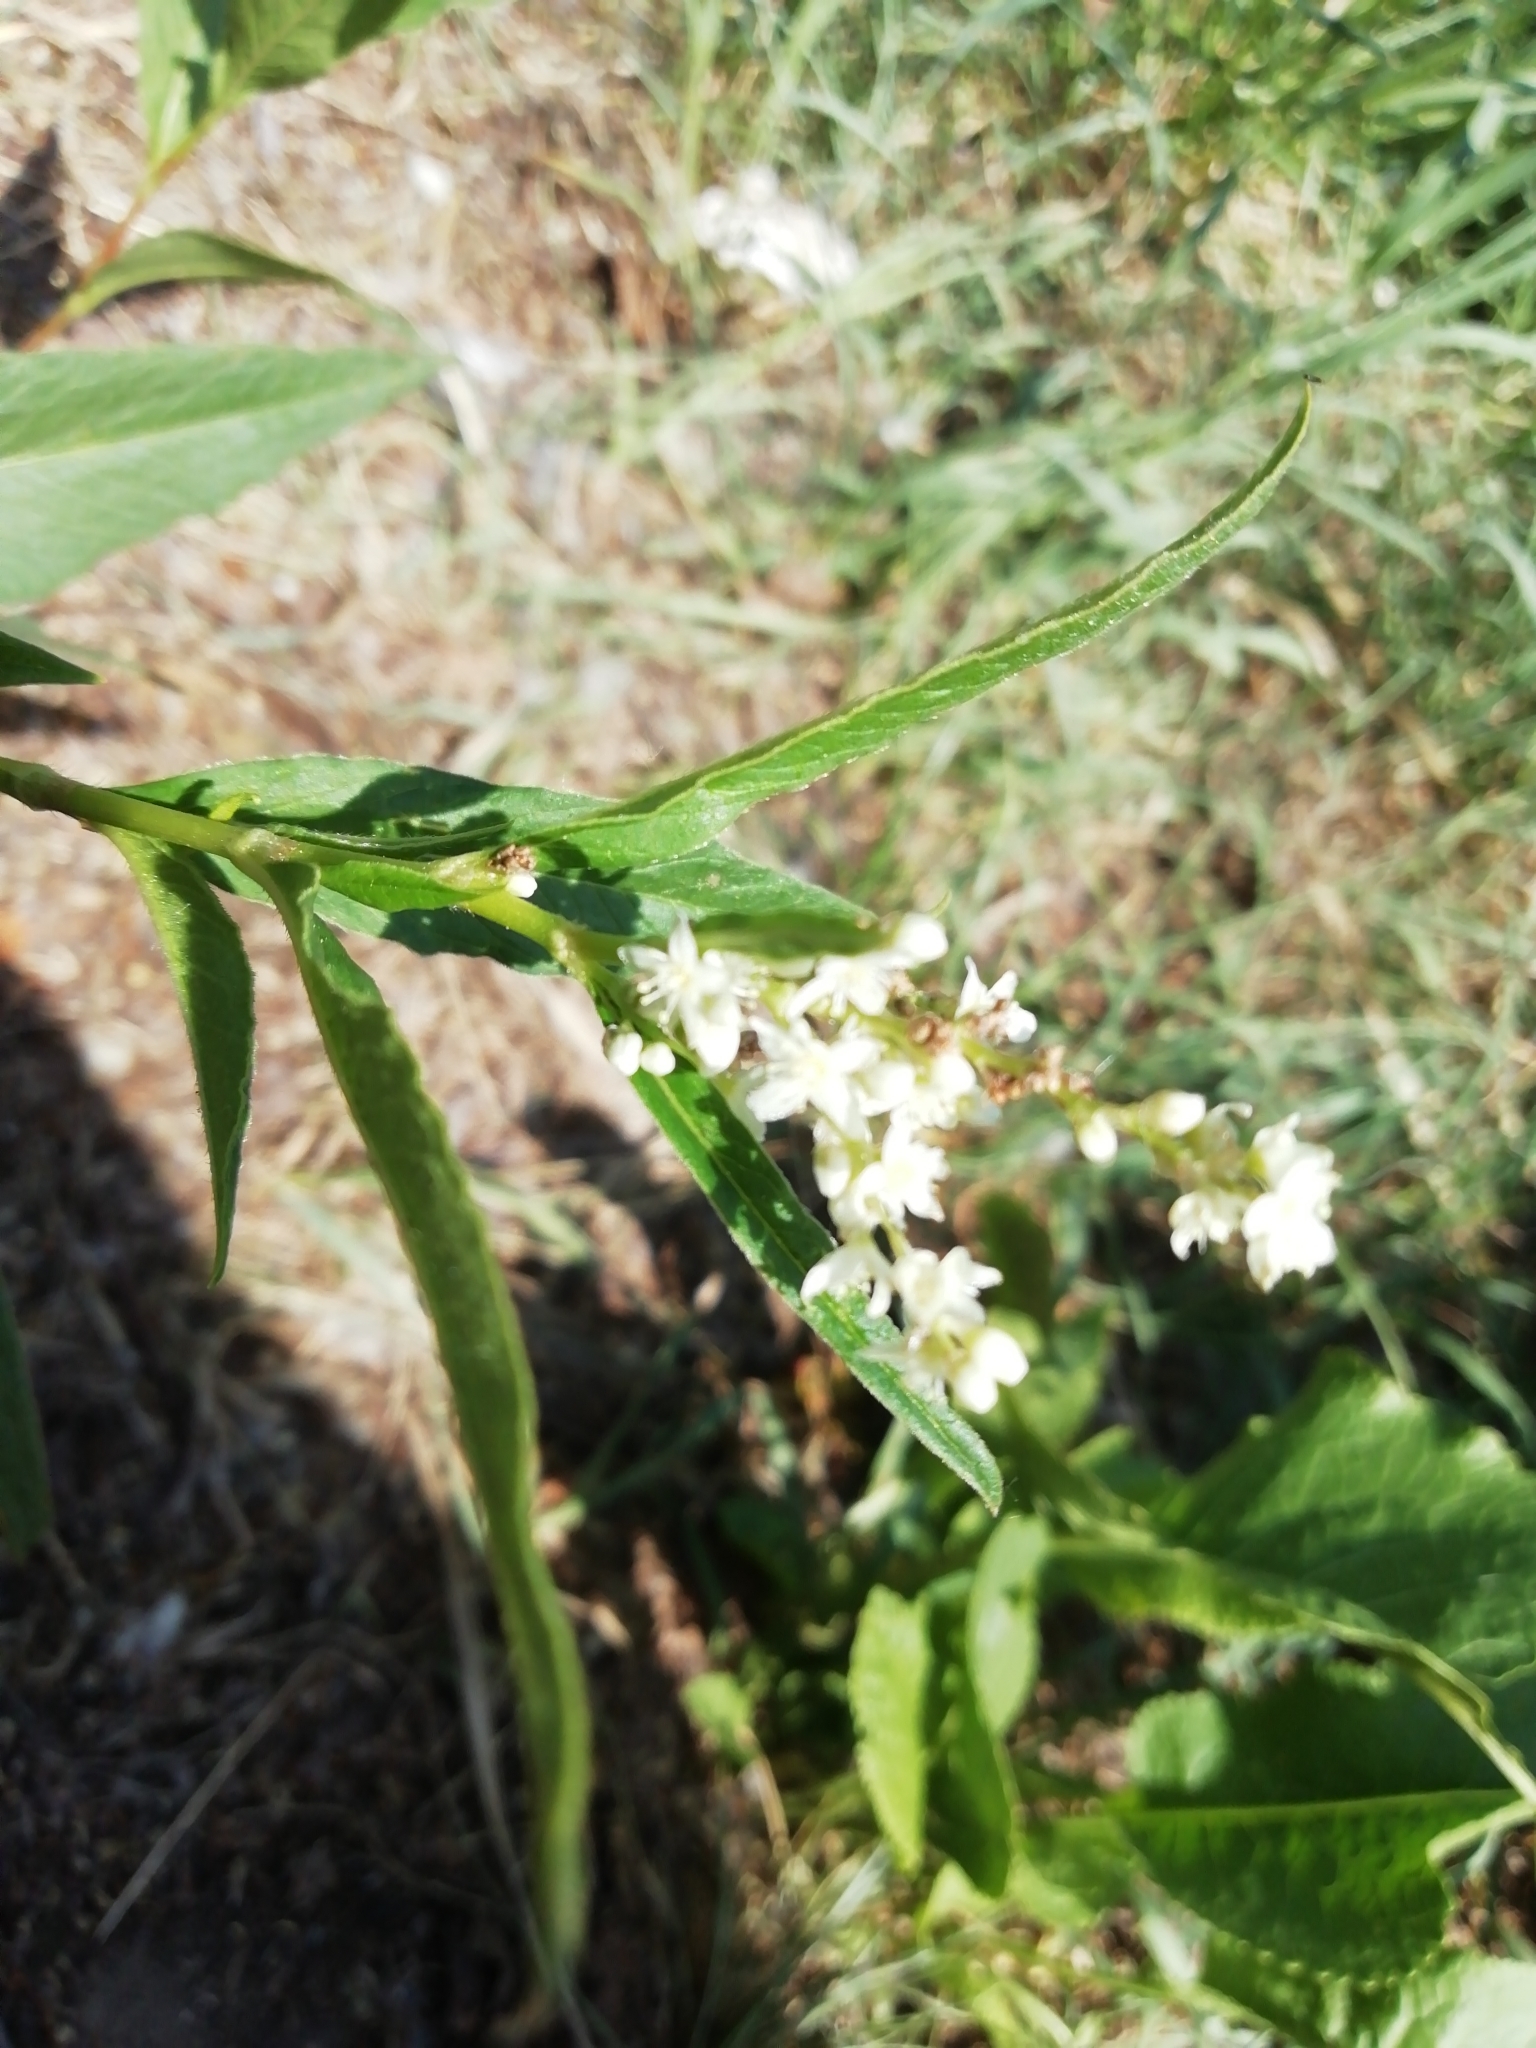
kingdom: Plantae
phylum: Tracheophyta
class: Magnoliopsida
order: Caryophyllales
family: Polygonaceae
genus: Koenigia
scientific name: Koenigia alpina
